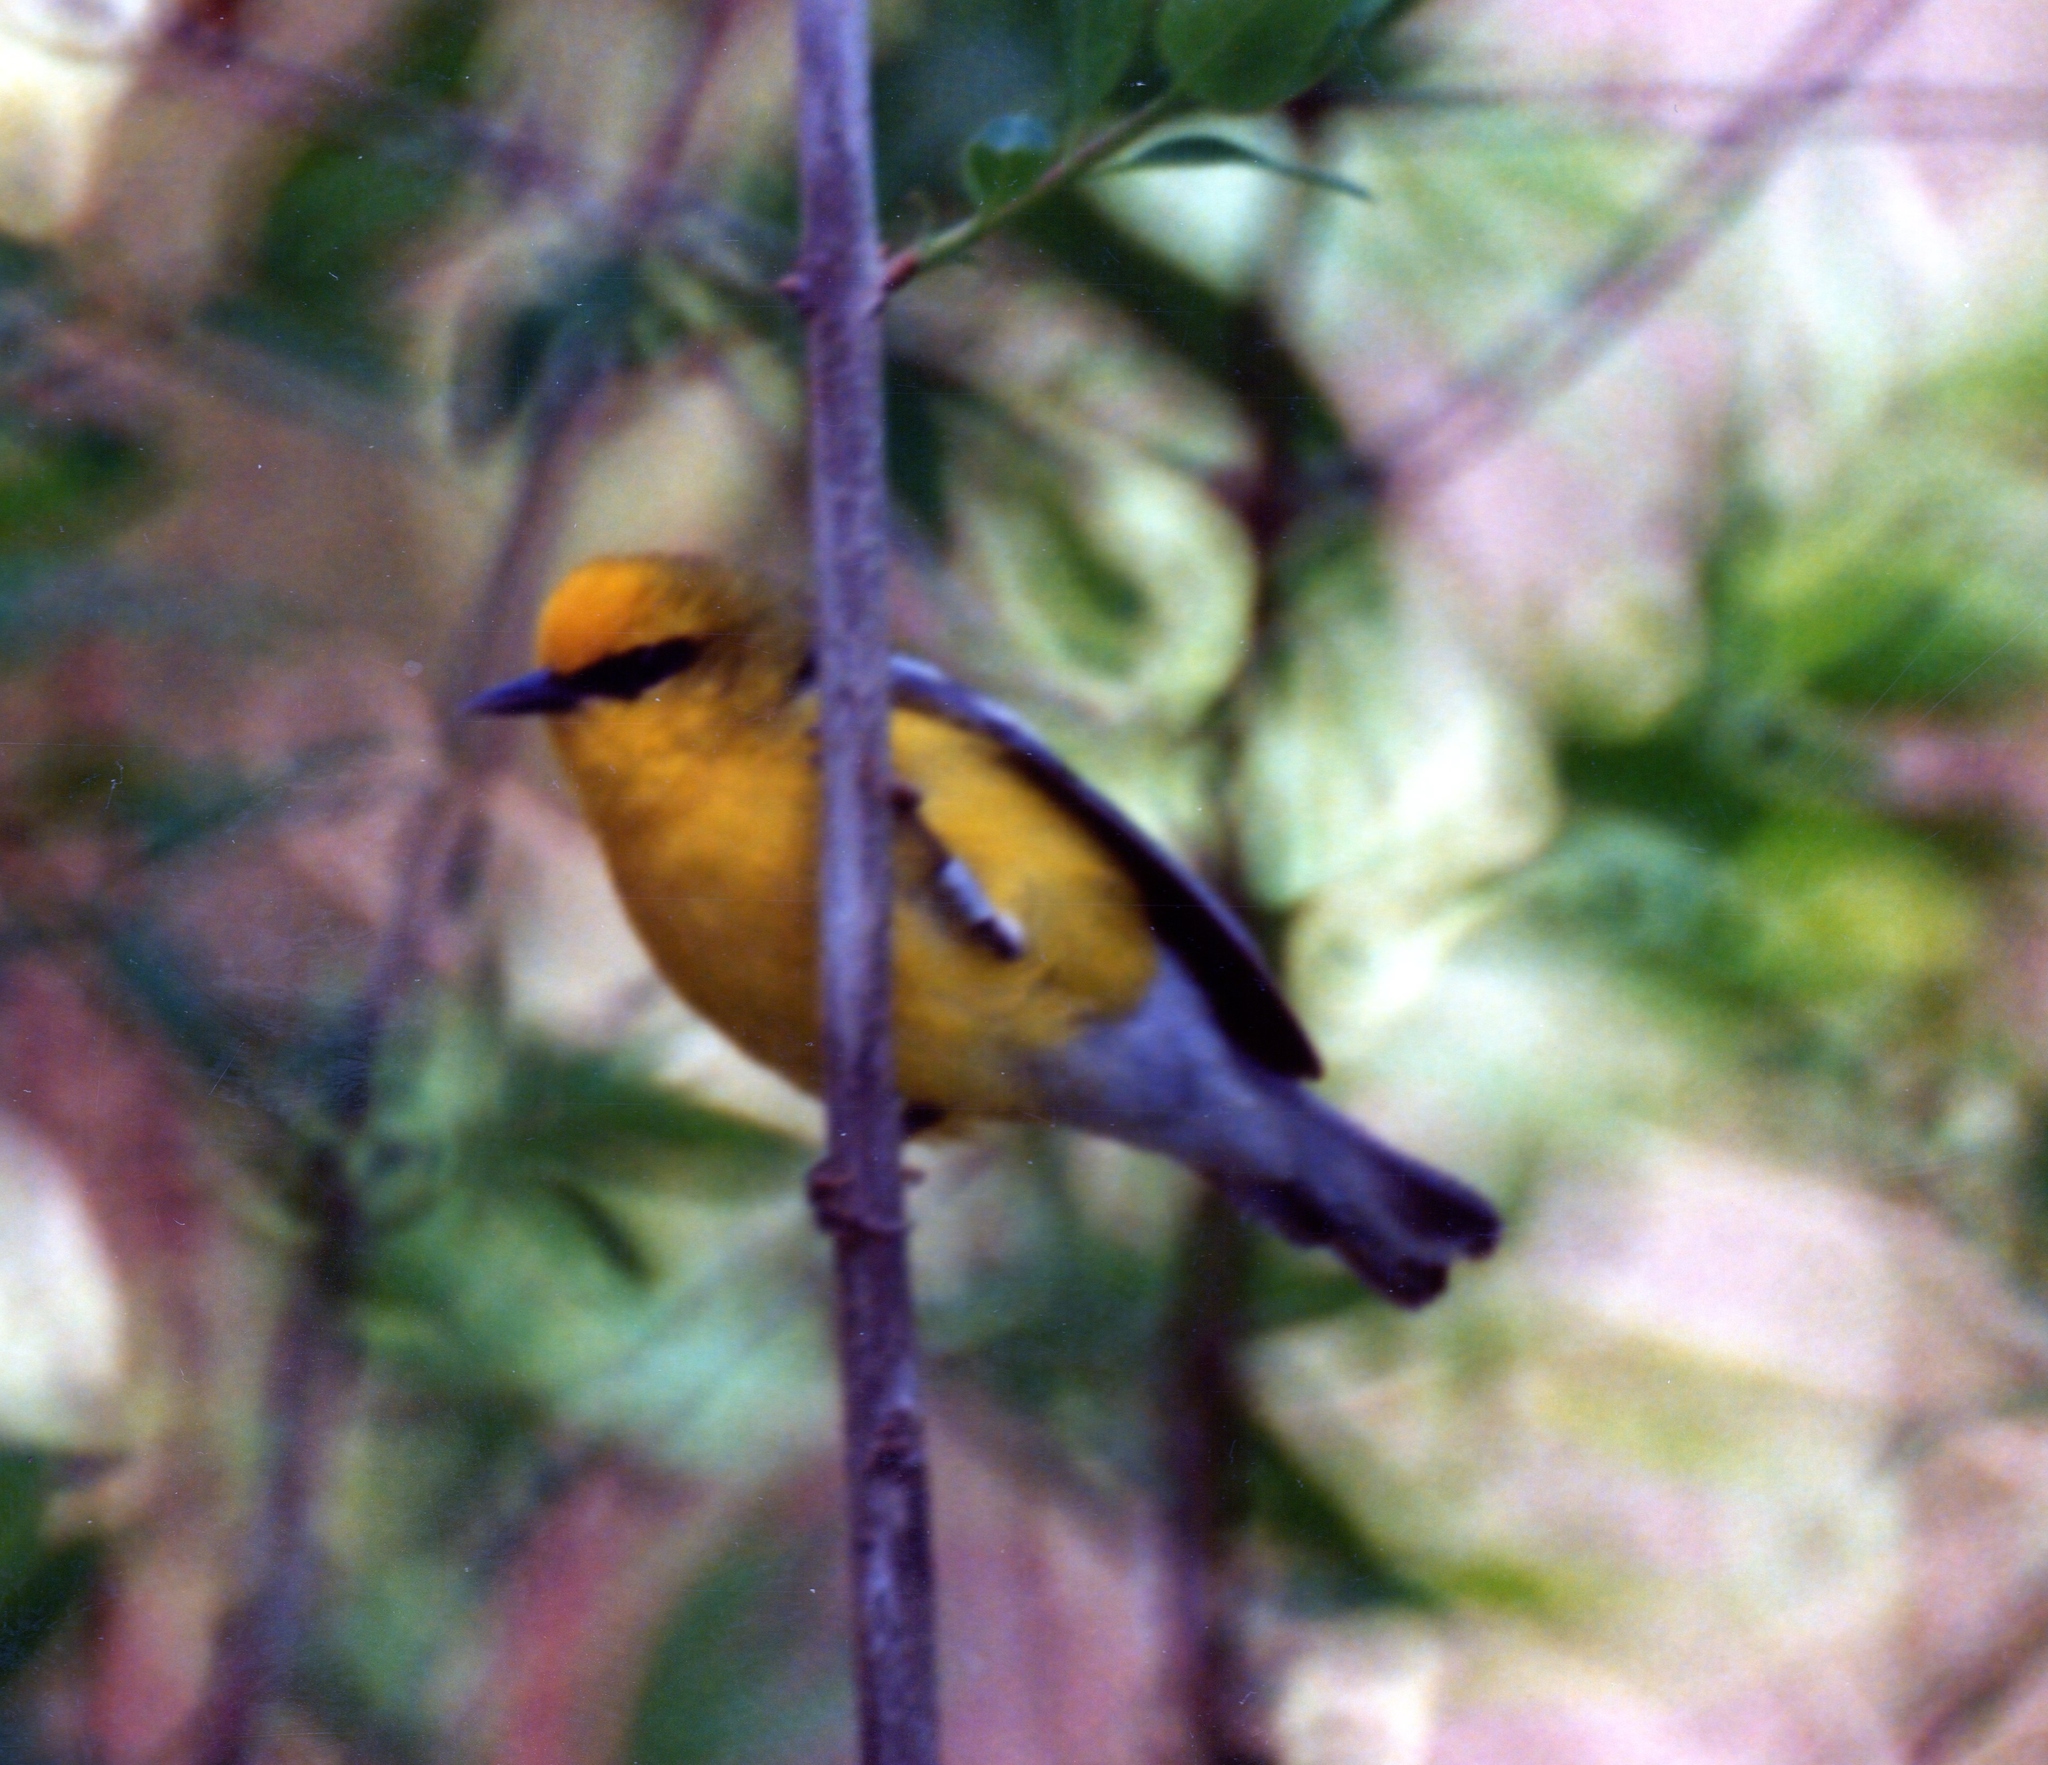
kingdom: Animalia
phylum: Chordata
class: Aves
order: Passeriformes
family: Parulidae
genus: Vermivora
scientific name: Vermivora cyanoptera
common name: Blue-winged warbler
